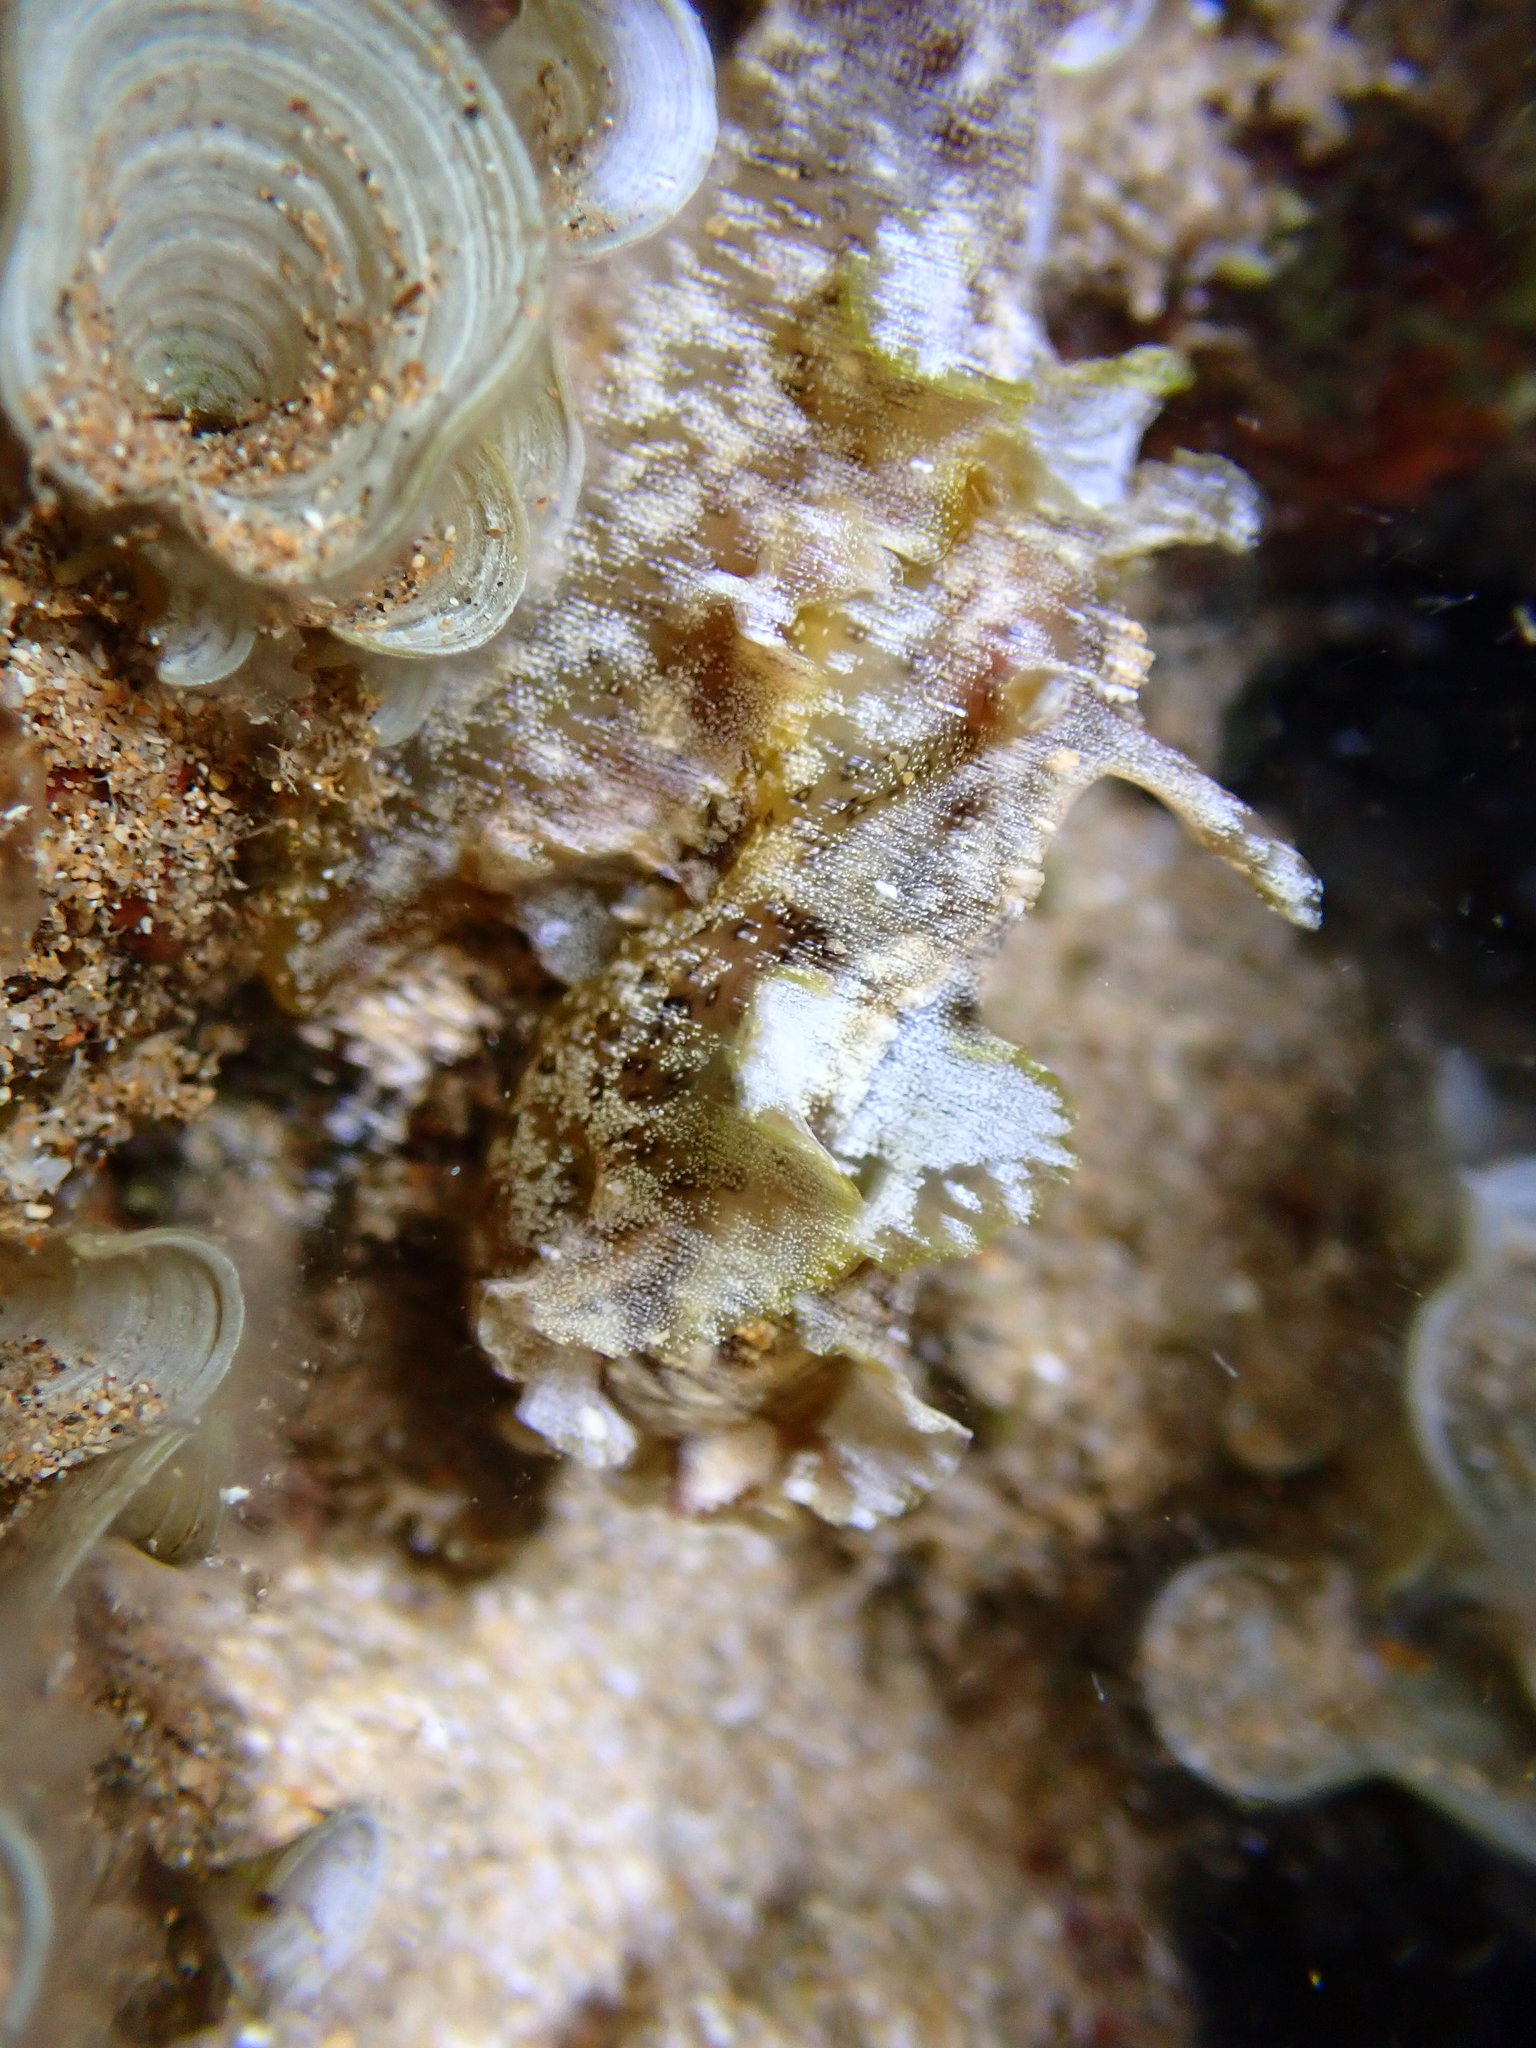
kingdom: Animalia
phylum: Mollusca
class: Gastropoda
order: Aplysiida
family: Aplysiidae
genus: Aplysia
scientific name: Aplysia argus
